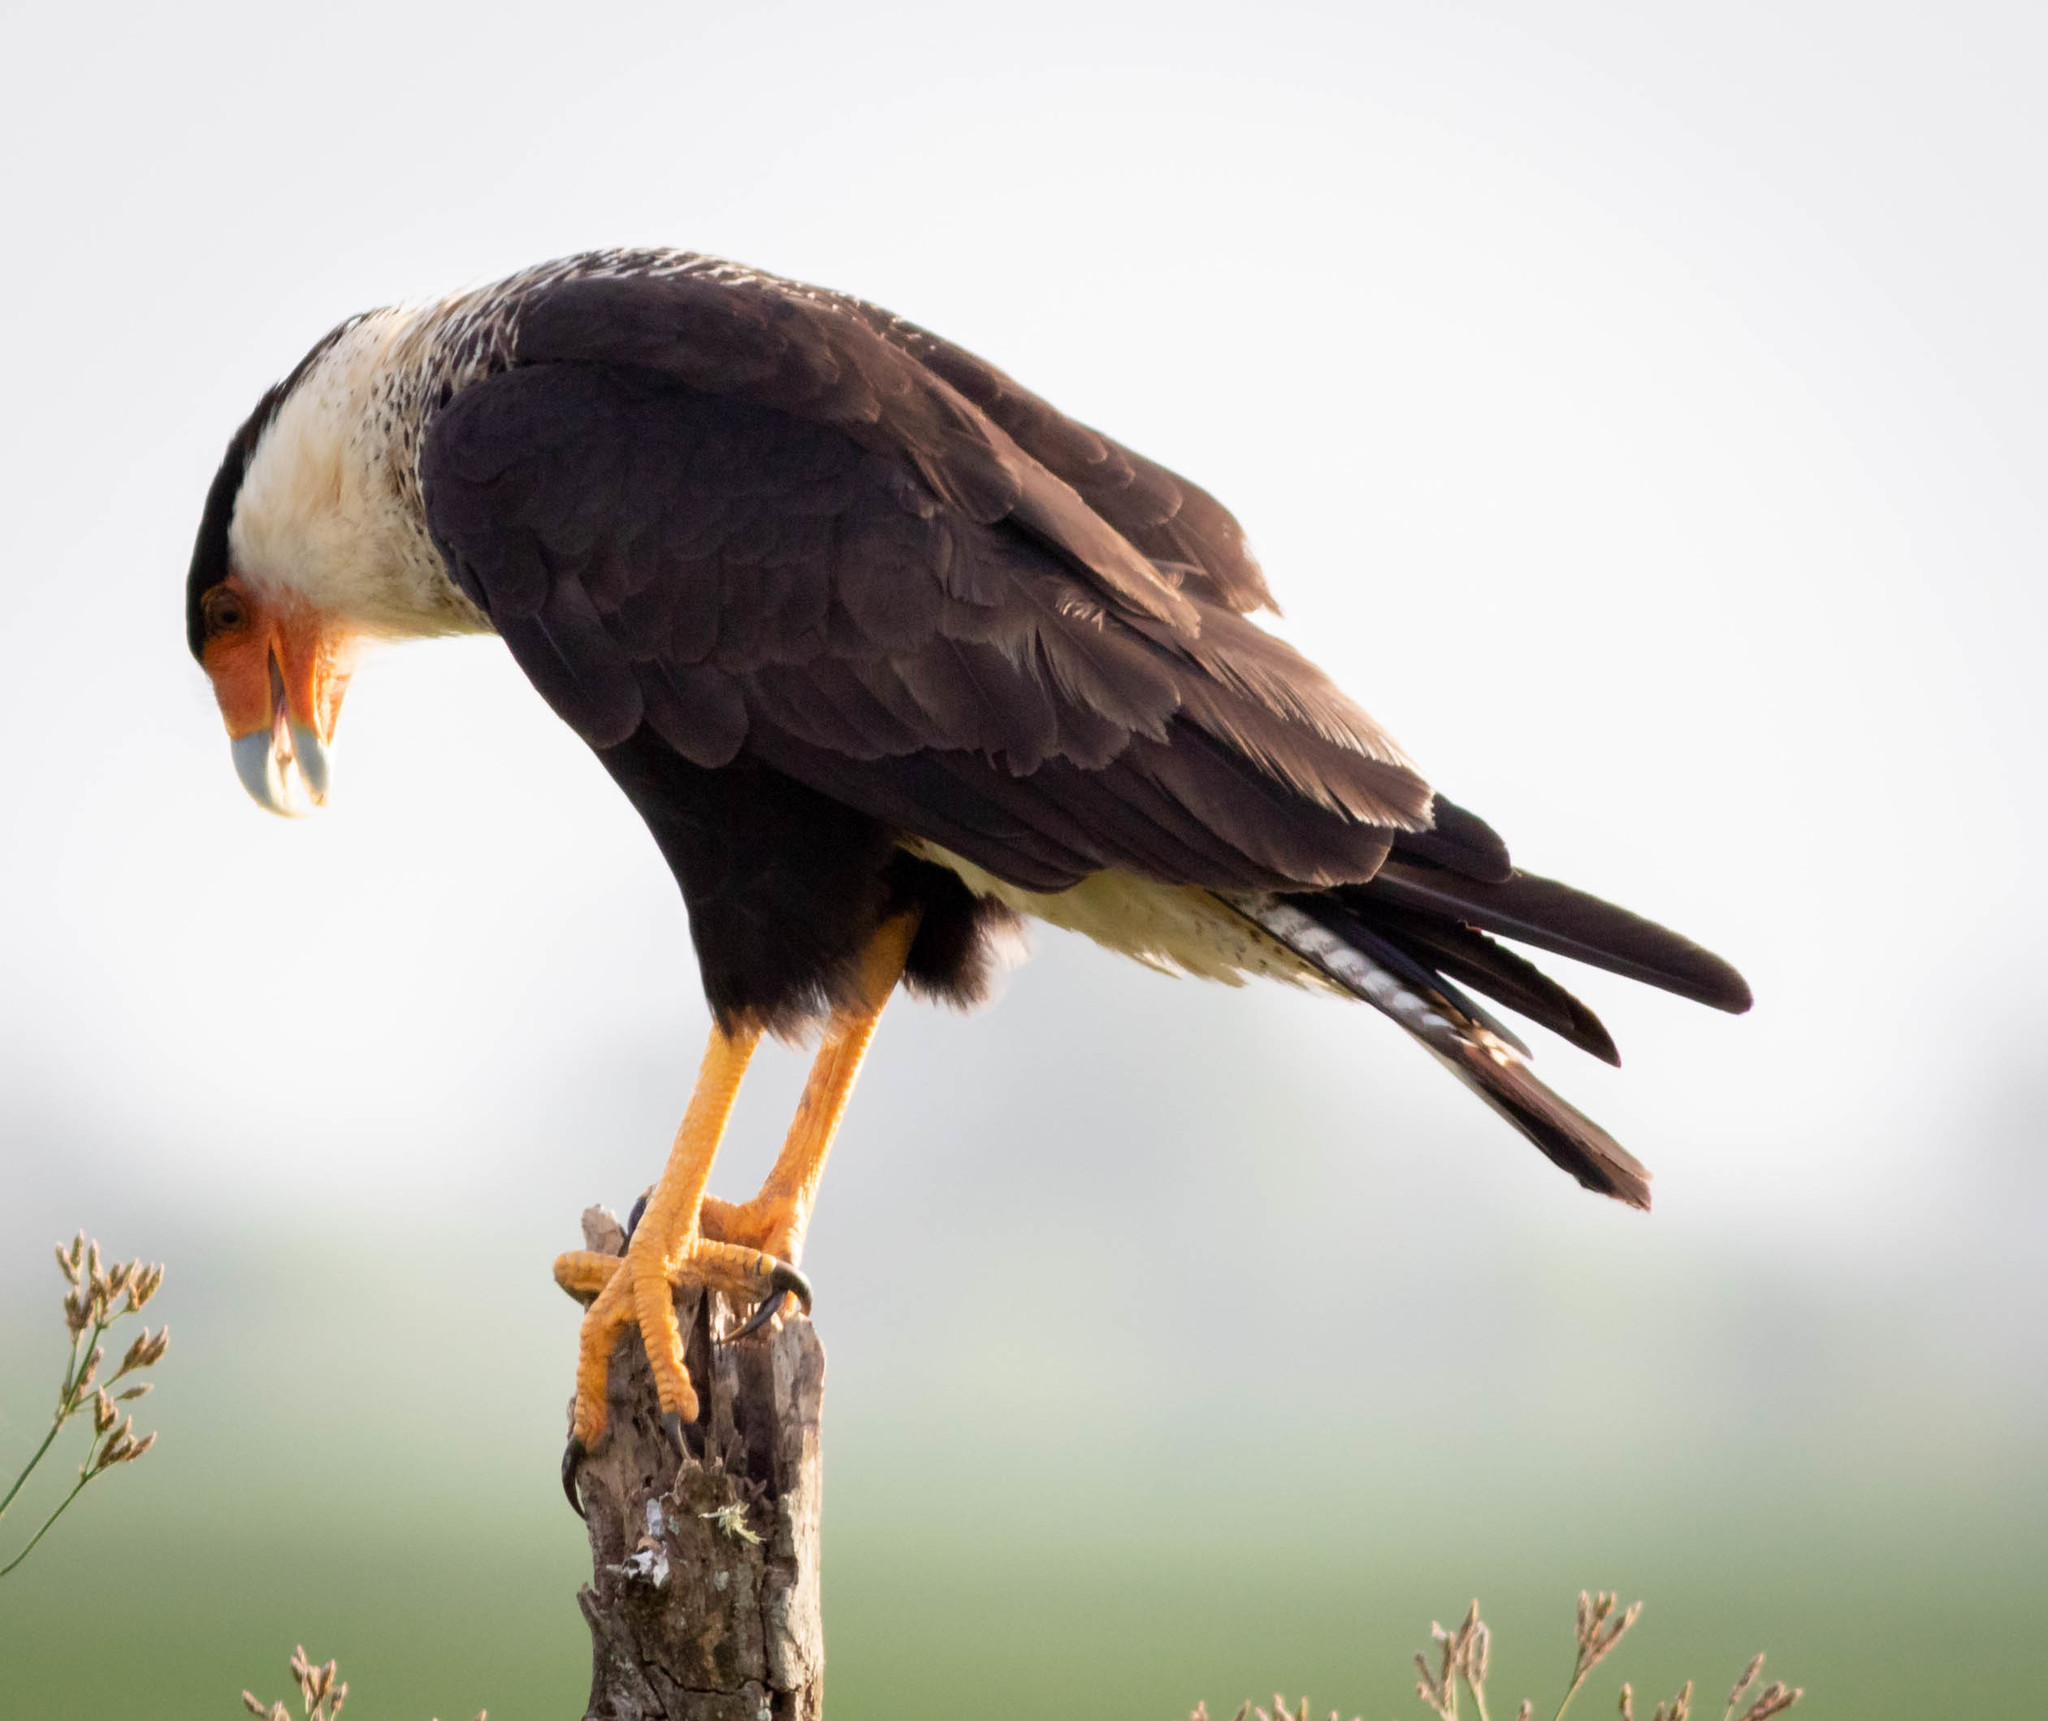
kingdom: Animalia
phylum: Chordata
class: Aves
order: Falconiformes
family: Falconidae
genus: Caracara
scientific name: Caracara plancus
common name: Southern caracara
